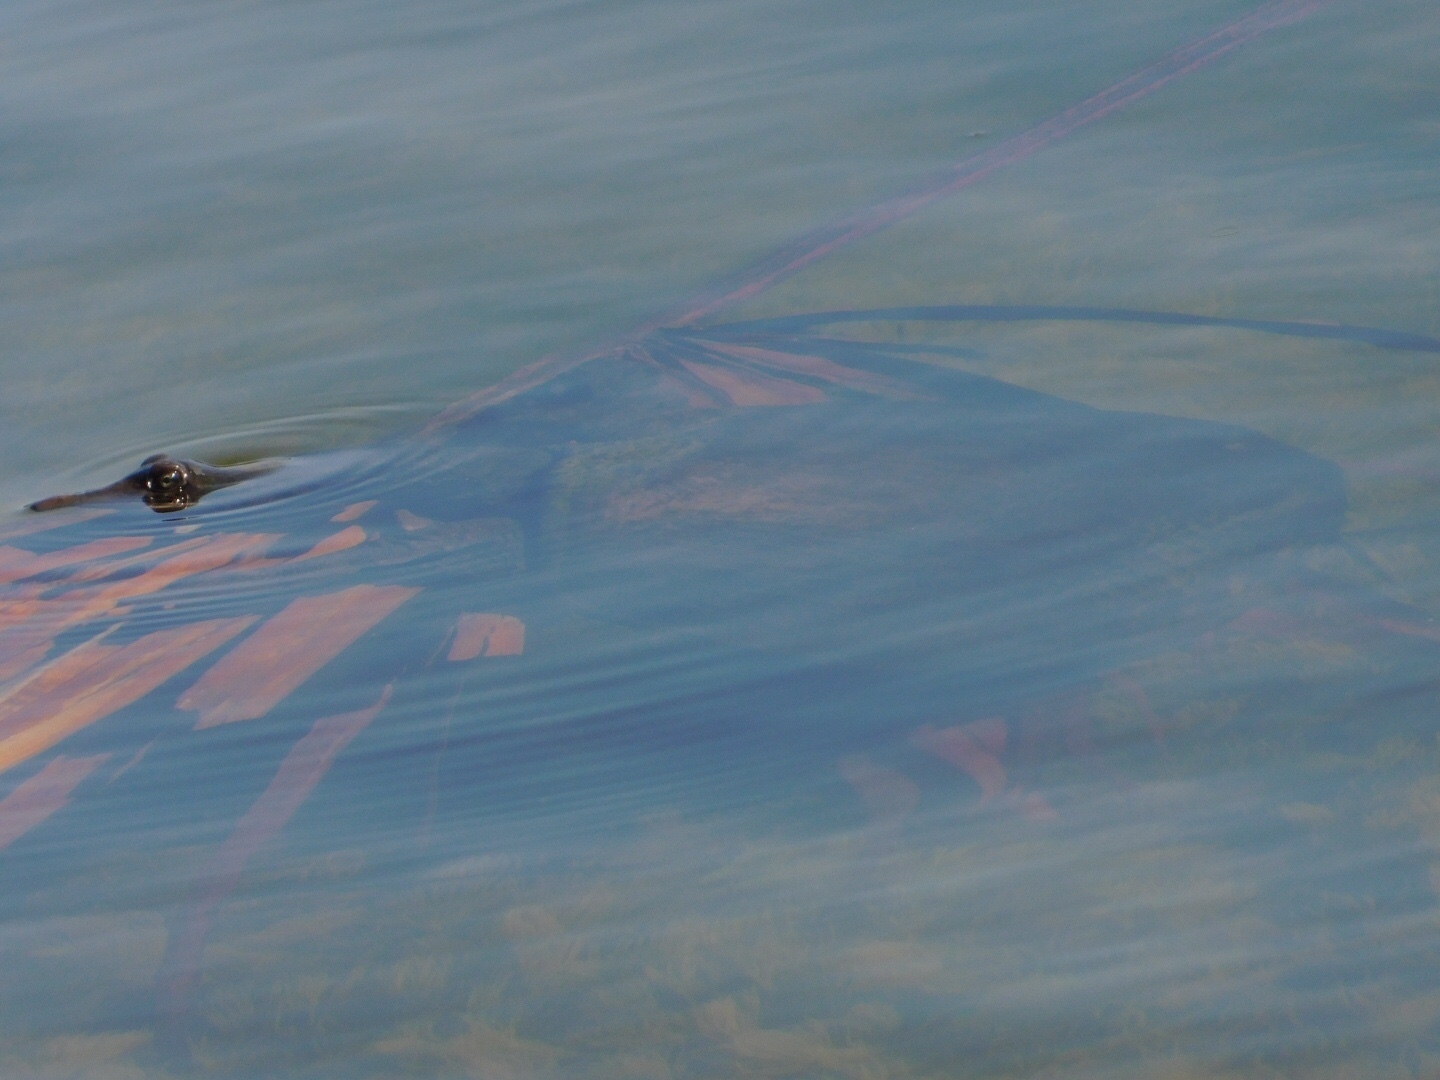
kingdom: Animalia
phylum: Chordata
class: Testudines
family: Trionychidae
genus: Apalone
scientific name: Apalone ferox
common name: Florida softshell turtle
